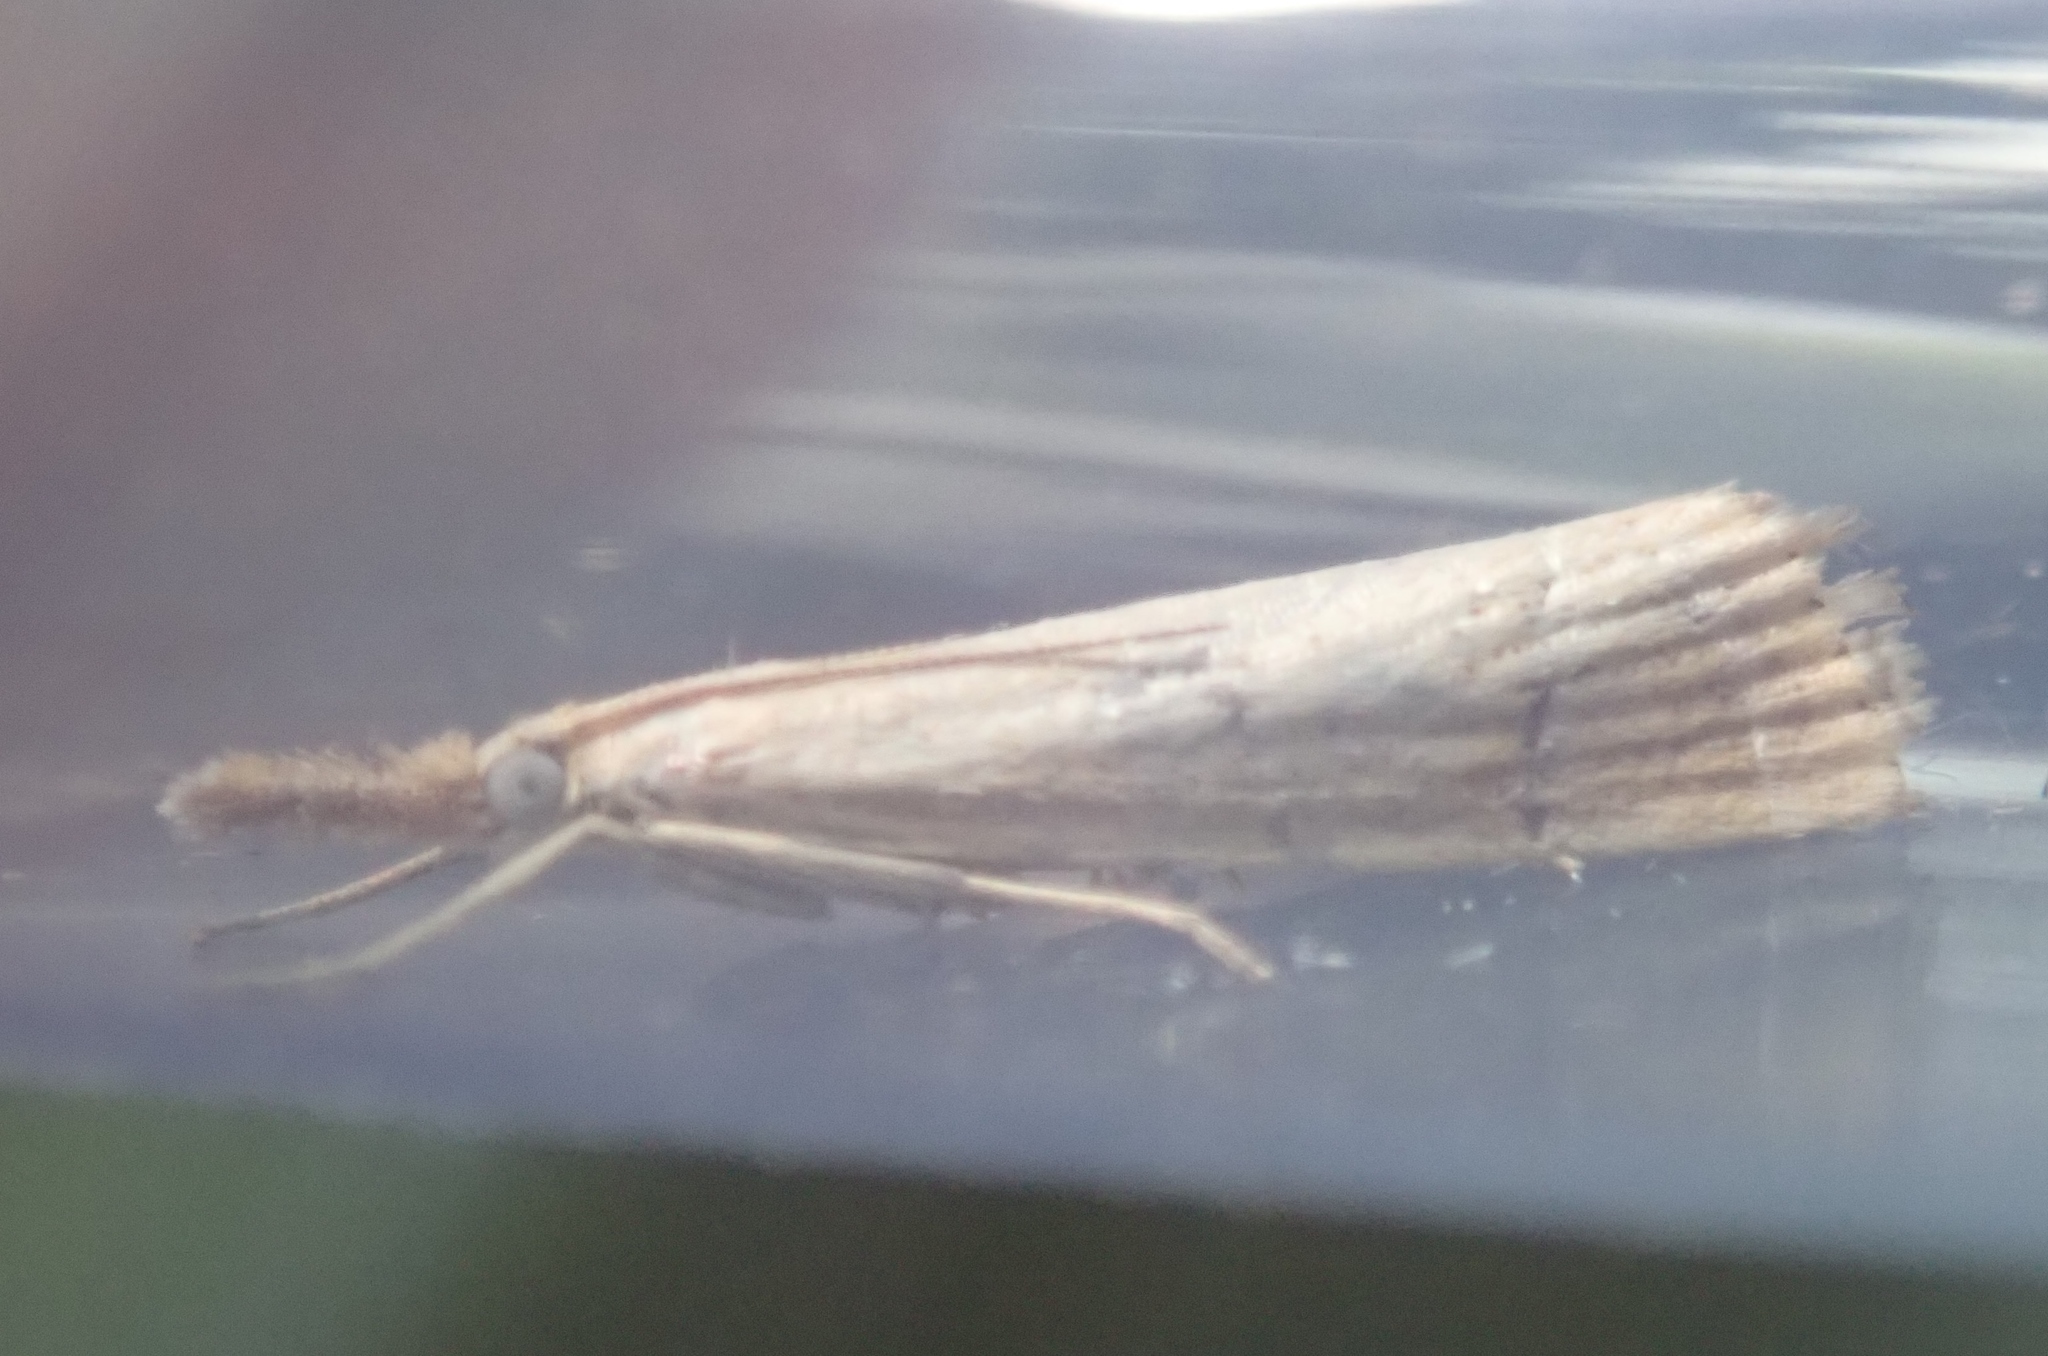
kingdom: Animalia
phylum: Arthropoda
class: Insecta
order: Lepidoptera
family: Crambidae
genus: Agriphila
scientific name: Agriphila straminella
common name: Straw grass-veneer
